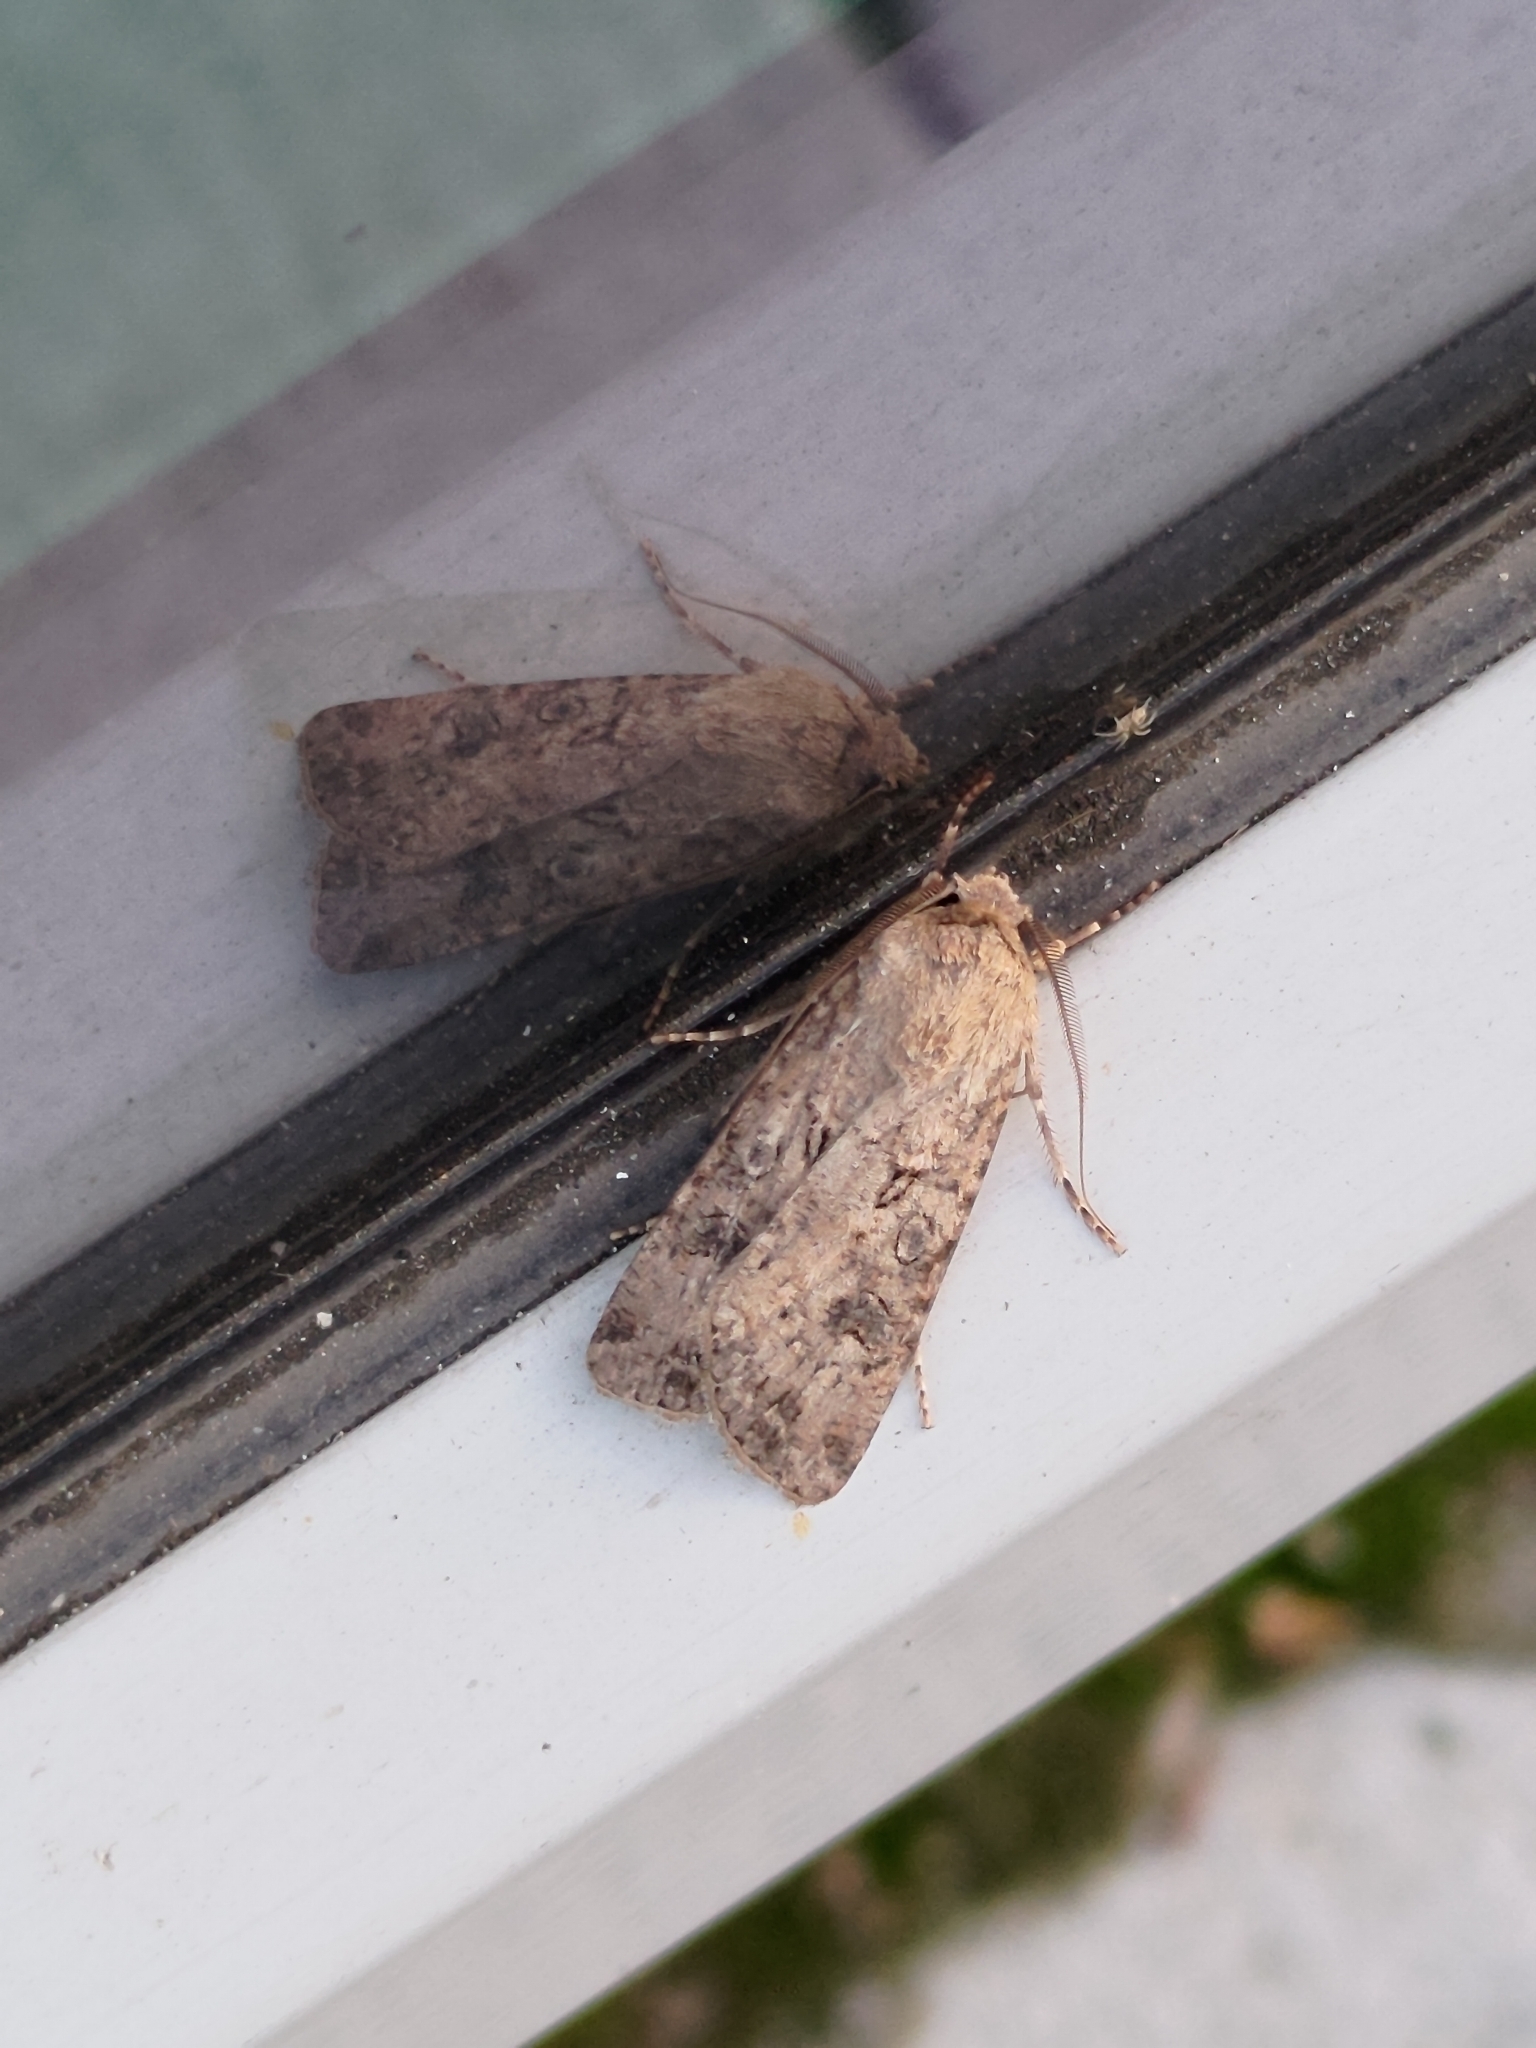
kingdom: Animalia
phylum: Arthropoda
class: Insecta
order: Lepidoptera
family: Noctuidae
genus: Agrotis
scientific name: Agrotis segetum
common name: Turnip moth
